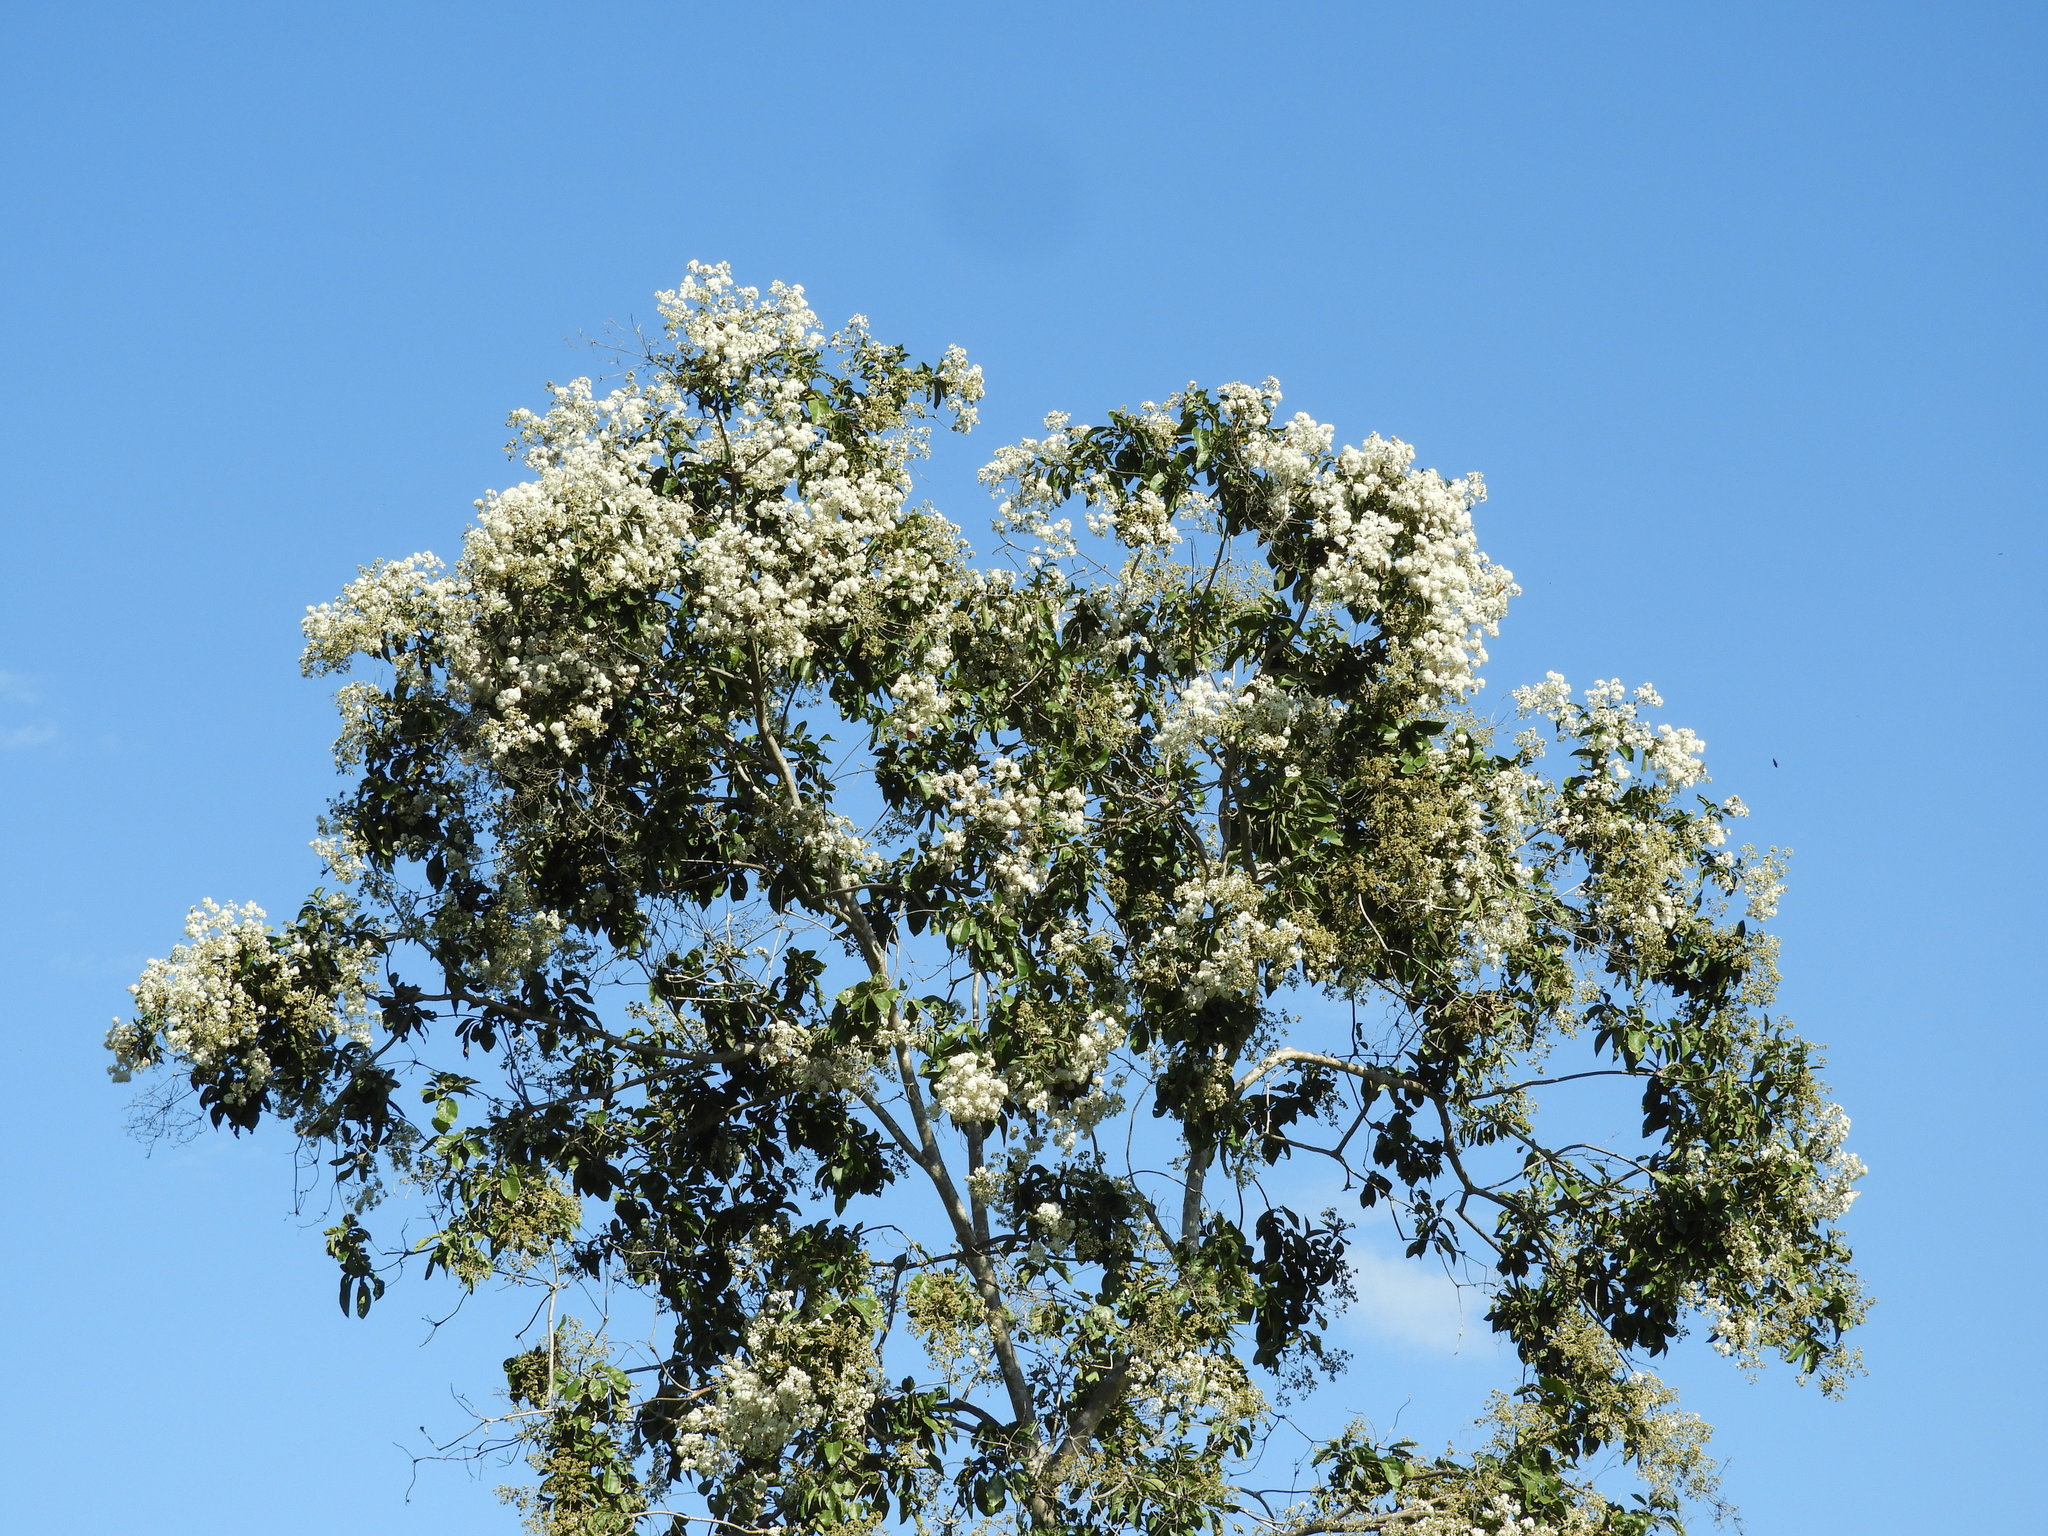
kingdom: Plantae
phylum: Tracheophyta
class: Magnoliopsida
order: Boraginales
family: Cordiaceae
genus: Cordia
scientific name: Cordia alliodora
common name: Spanish elm
